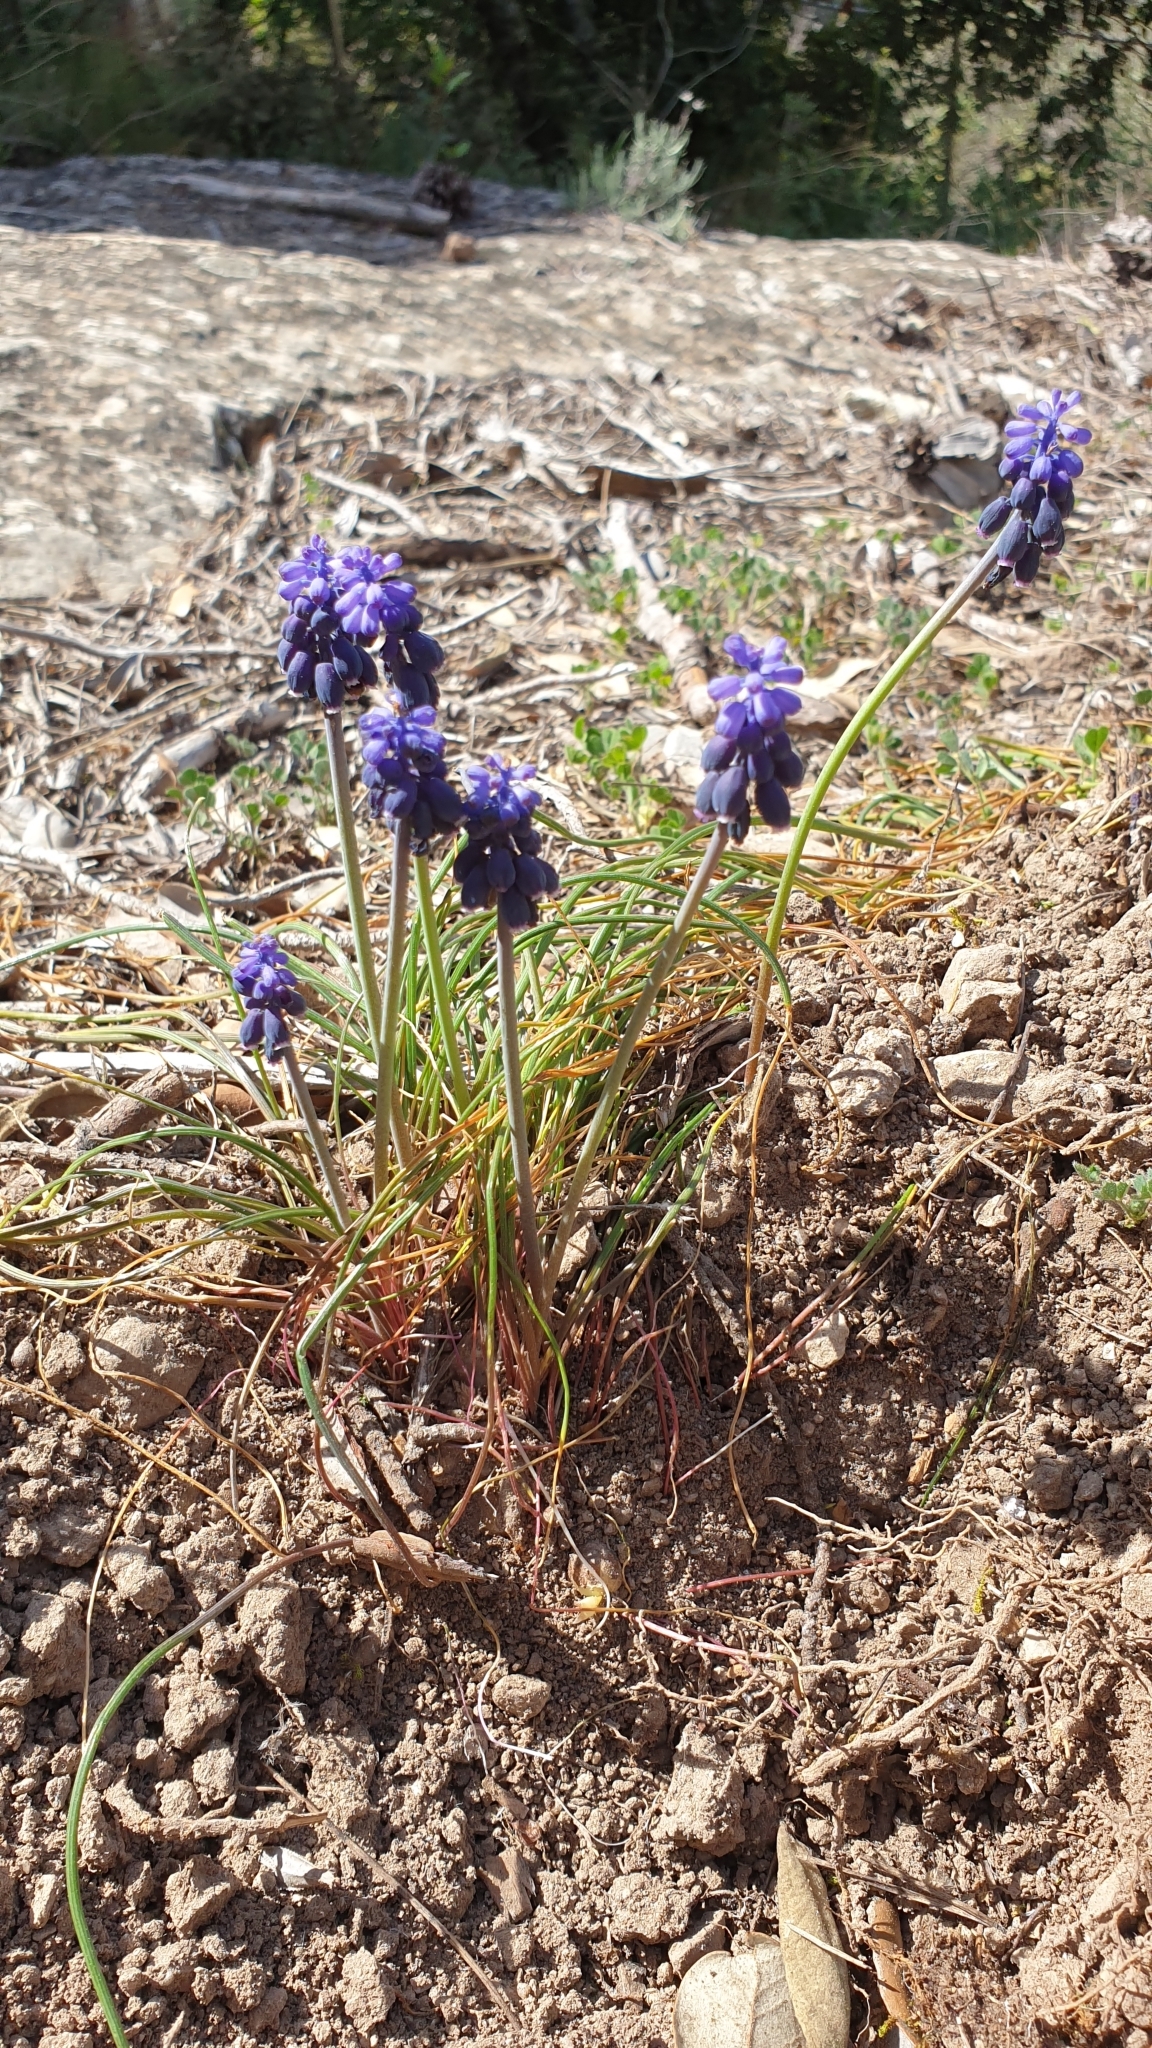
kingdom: Plantae
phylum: Tracheophyta
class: Liliopsida
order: Asparagales
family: Asparagaceae
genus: Muscari
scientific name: Muscari neglectum
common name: Grape-hyacinth
